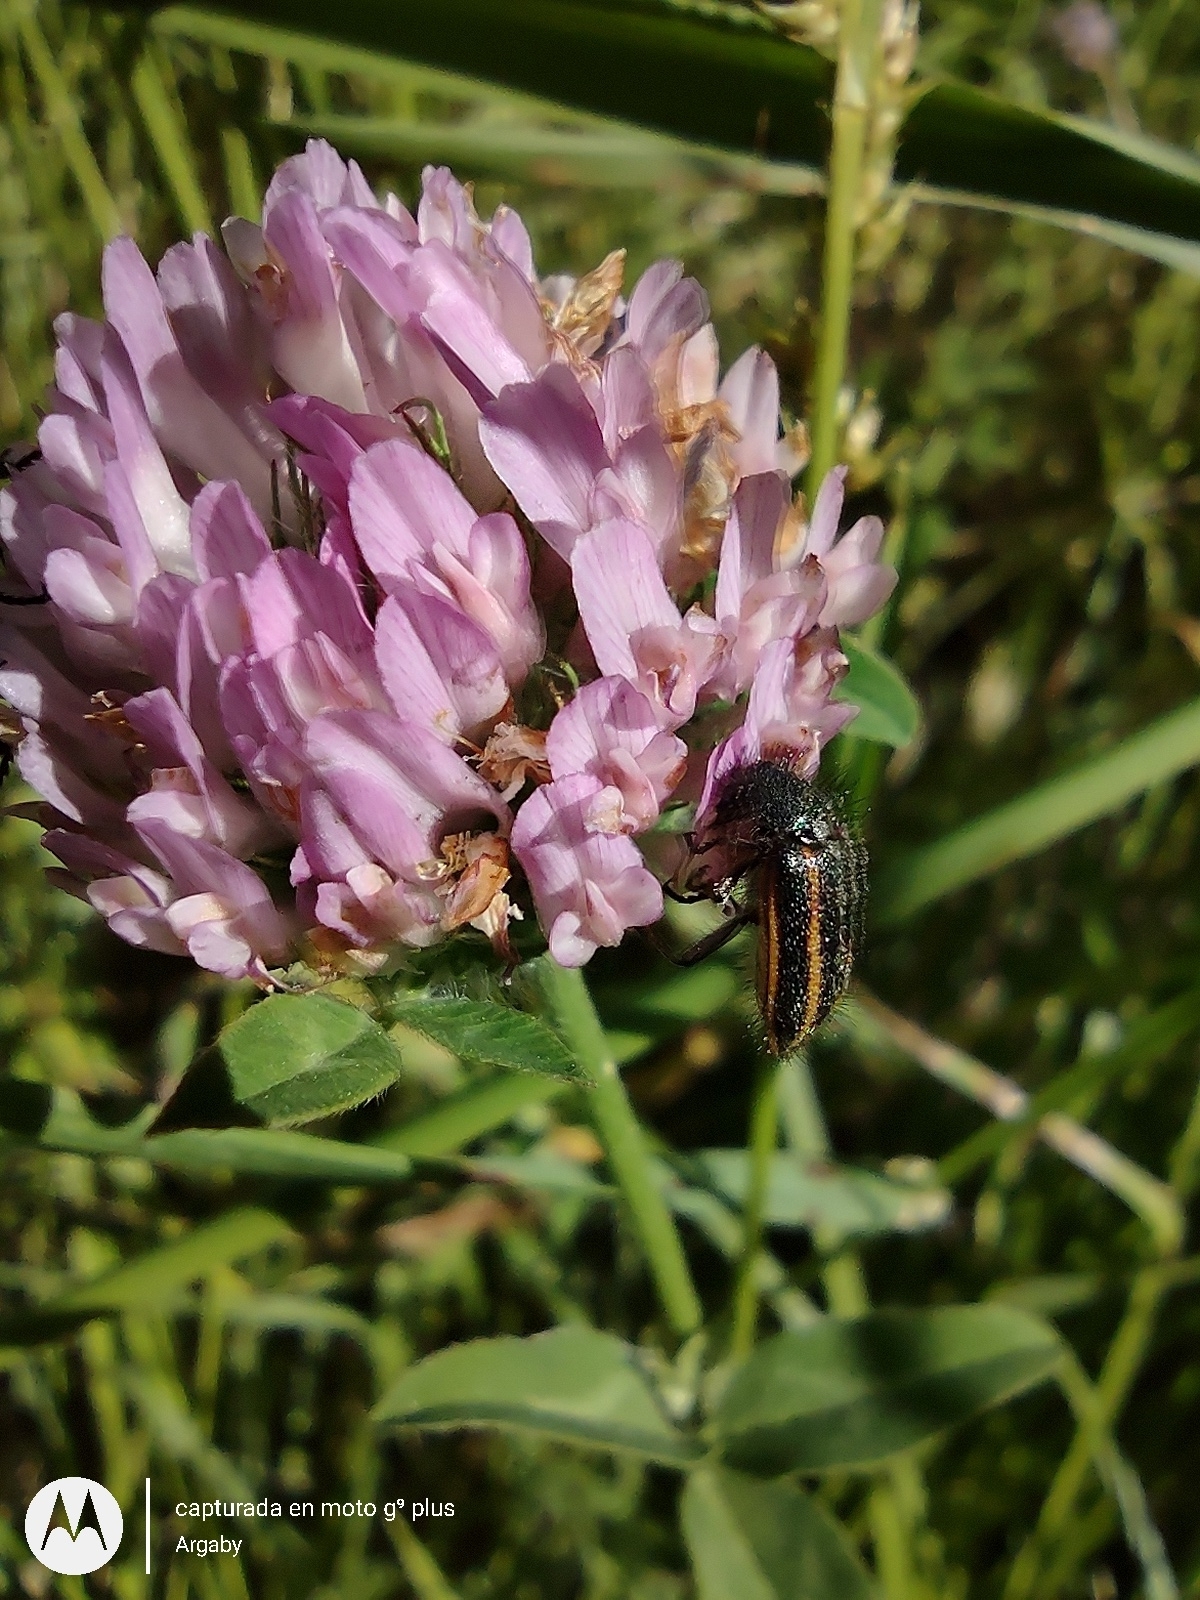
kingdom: Animalia
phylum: Arthropoda
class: Insecta
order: Coleoptera
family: Melyridae
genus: Astylus
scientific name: Astylus
